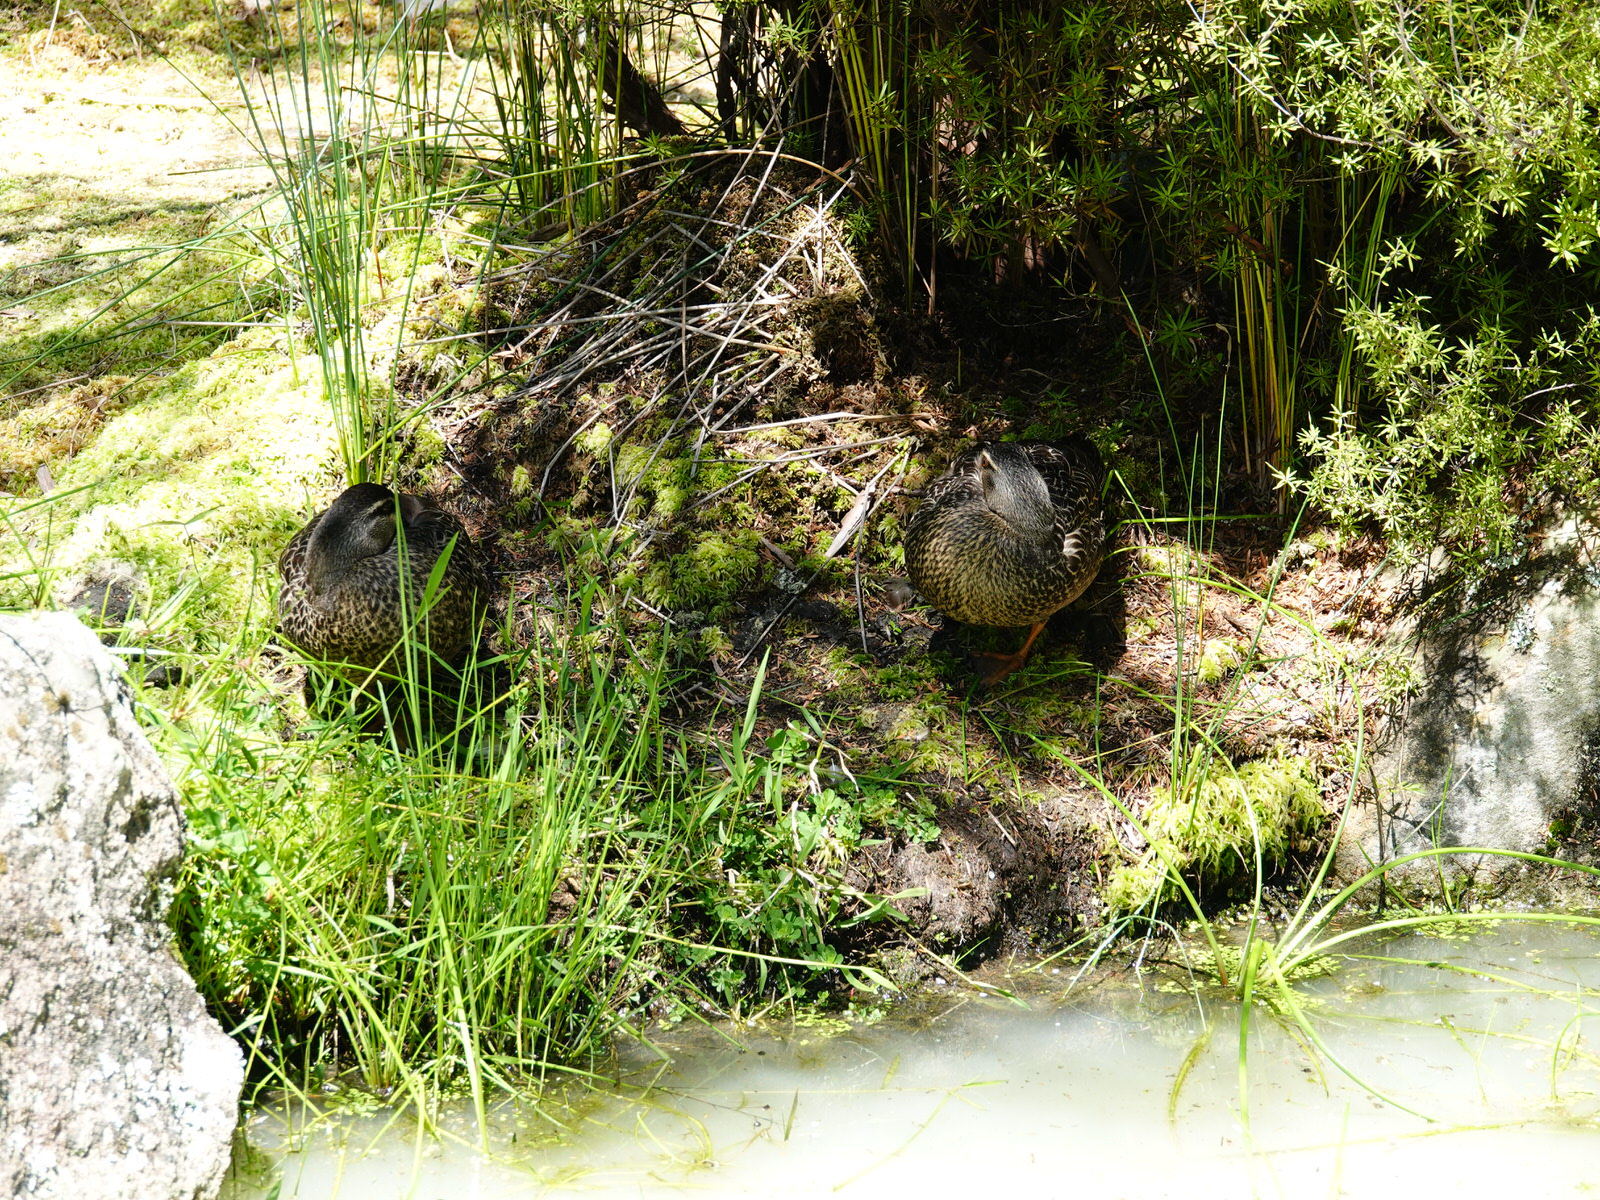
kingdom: Animalia
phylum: Chordata
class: Aves
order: Anseriformes
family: Anatidae
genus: Anas
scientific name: Anas
